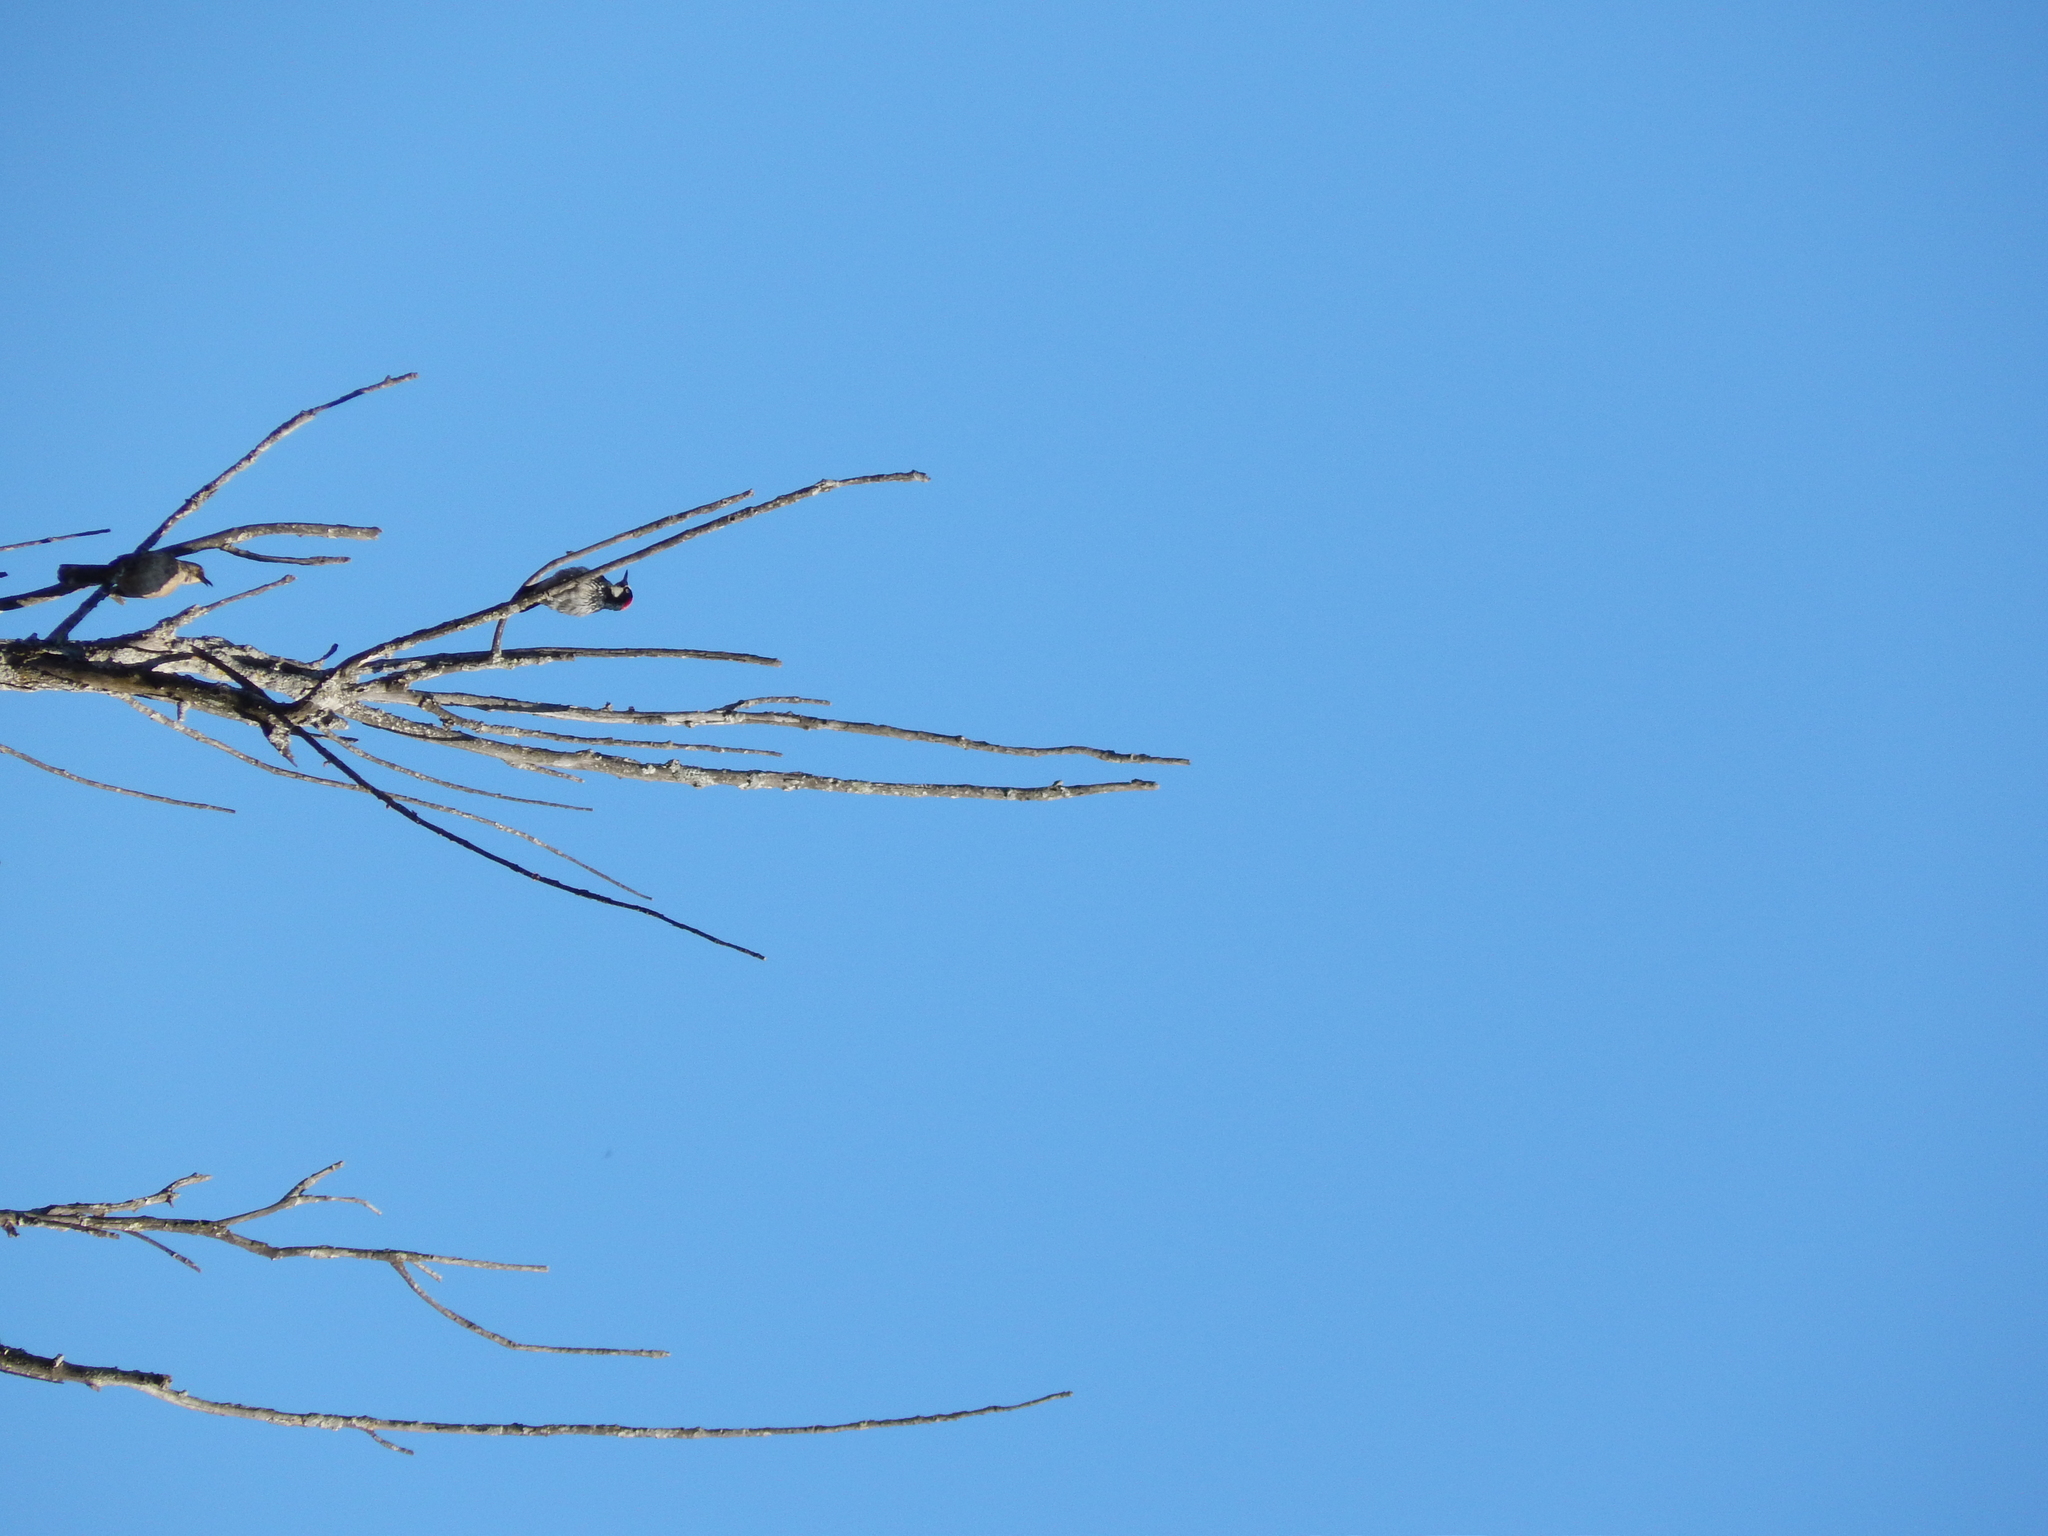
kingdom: Animalia
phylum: Chordata
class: Aves
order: Piciformes
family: Picidae
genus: Melanerpes
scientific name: Melanerpes formicivorus
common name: Acorn woodpecker
